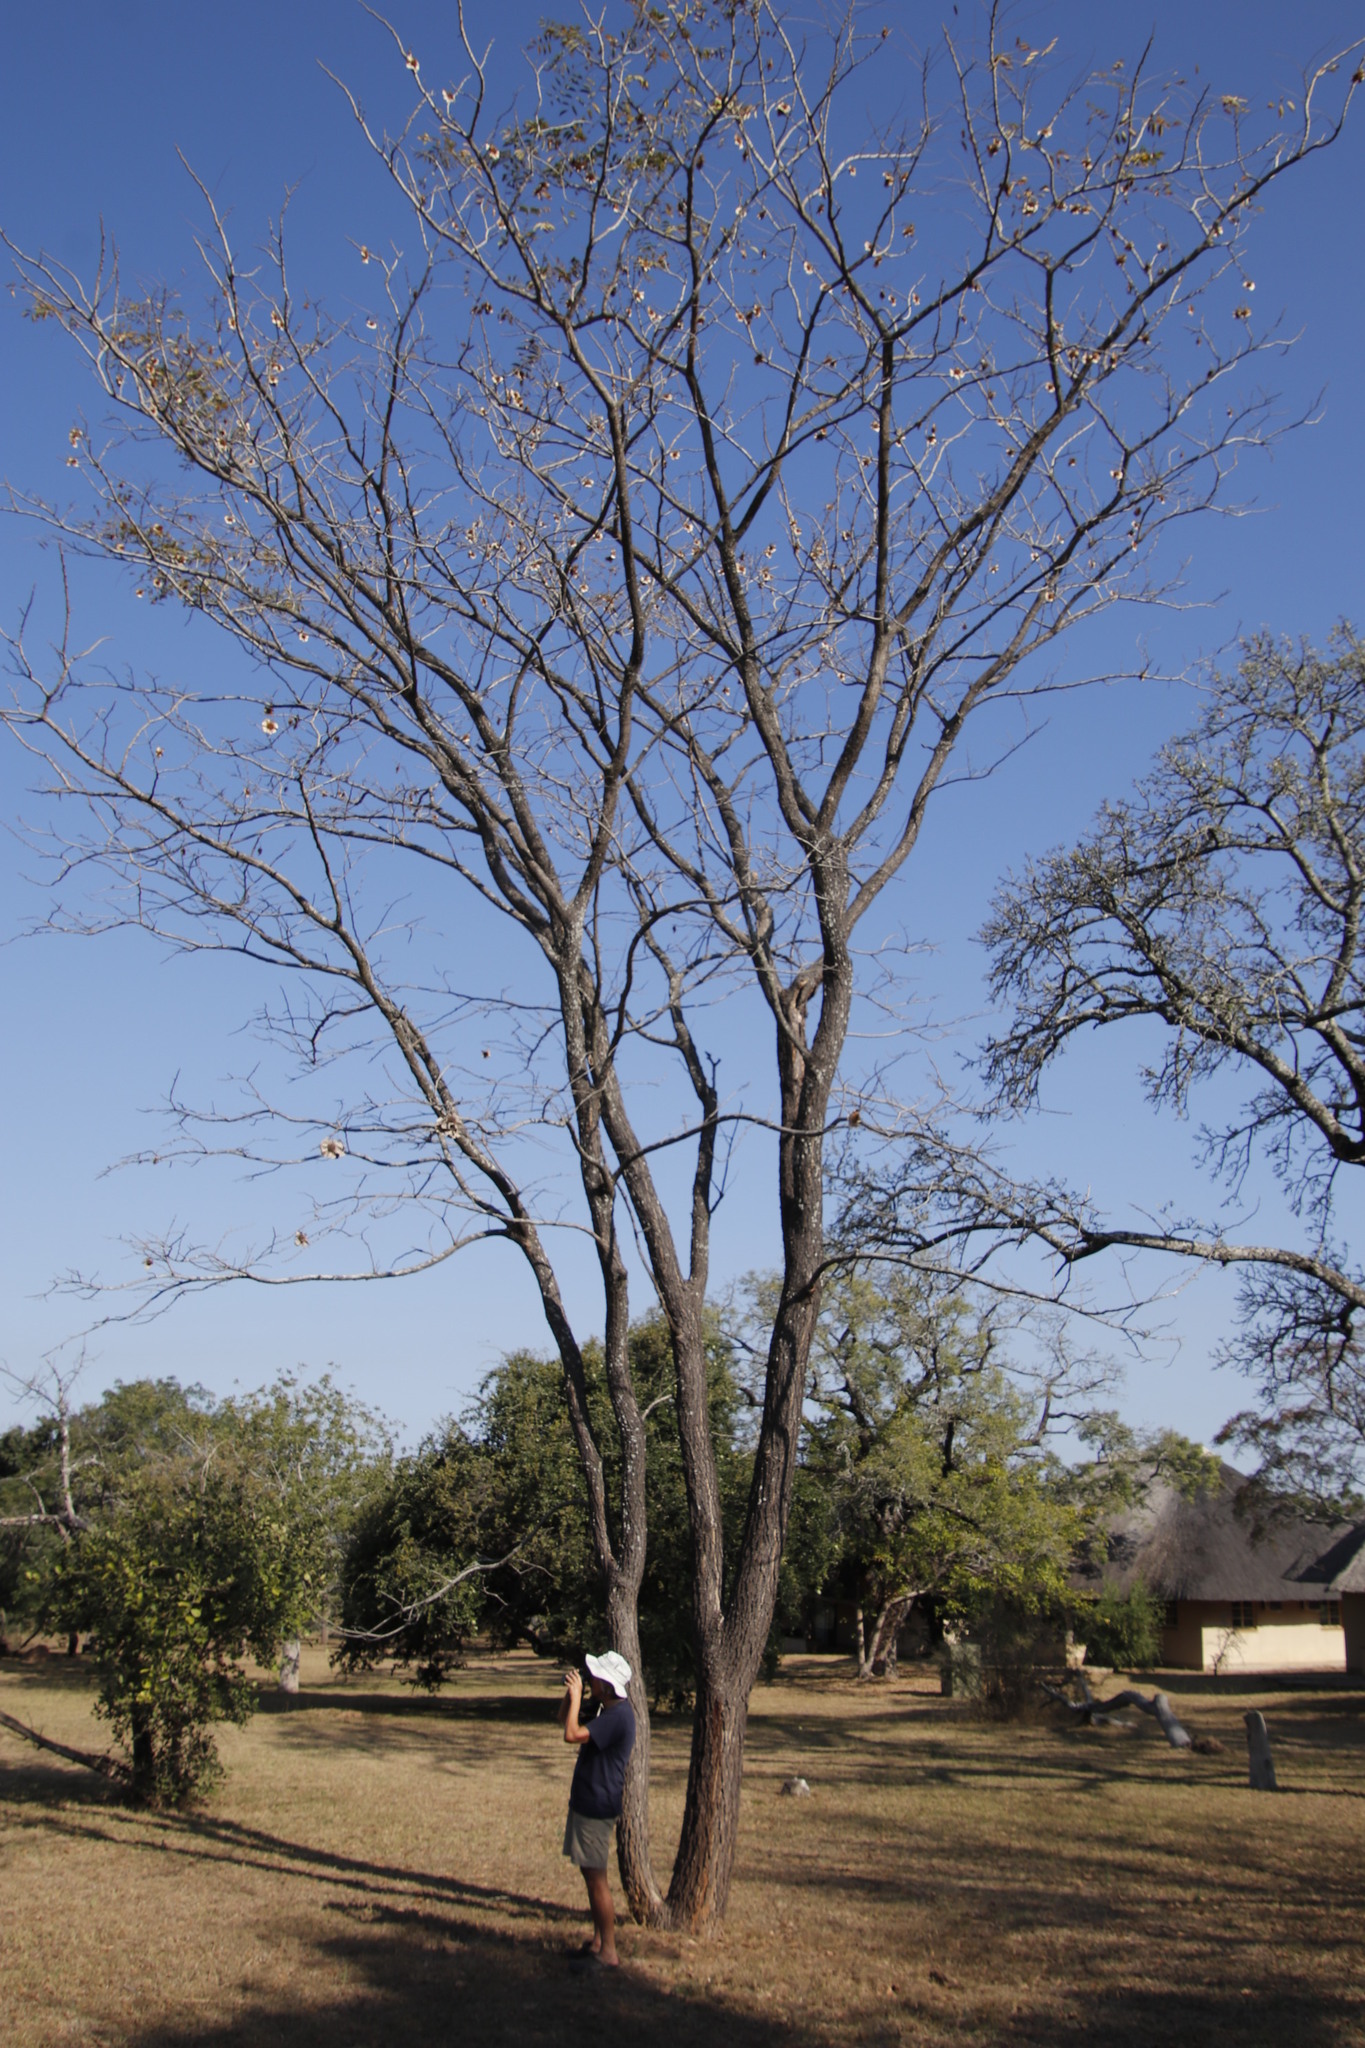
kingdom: Plantae
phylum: Tracheophyta
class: Magnoliopsida
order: Fabales
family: Fabaceae
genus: Pterocarpus
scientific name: Pterocarpus angolensis
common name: Bloodwood tree
